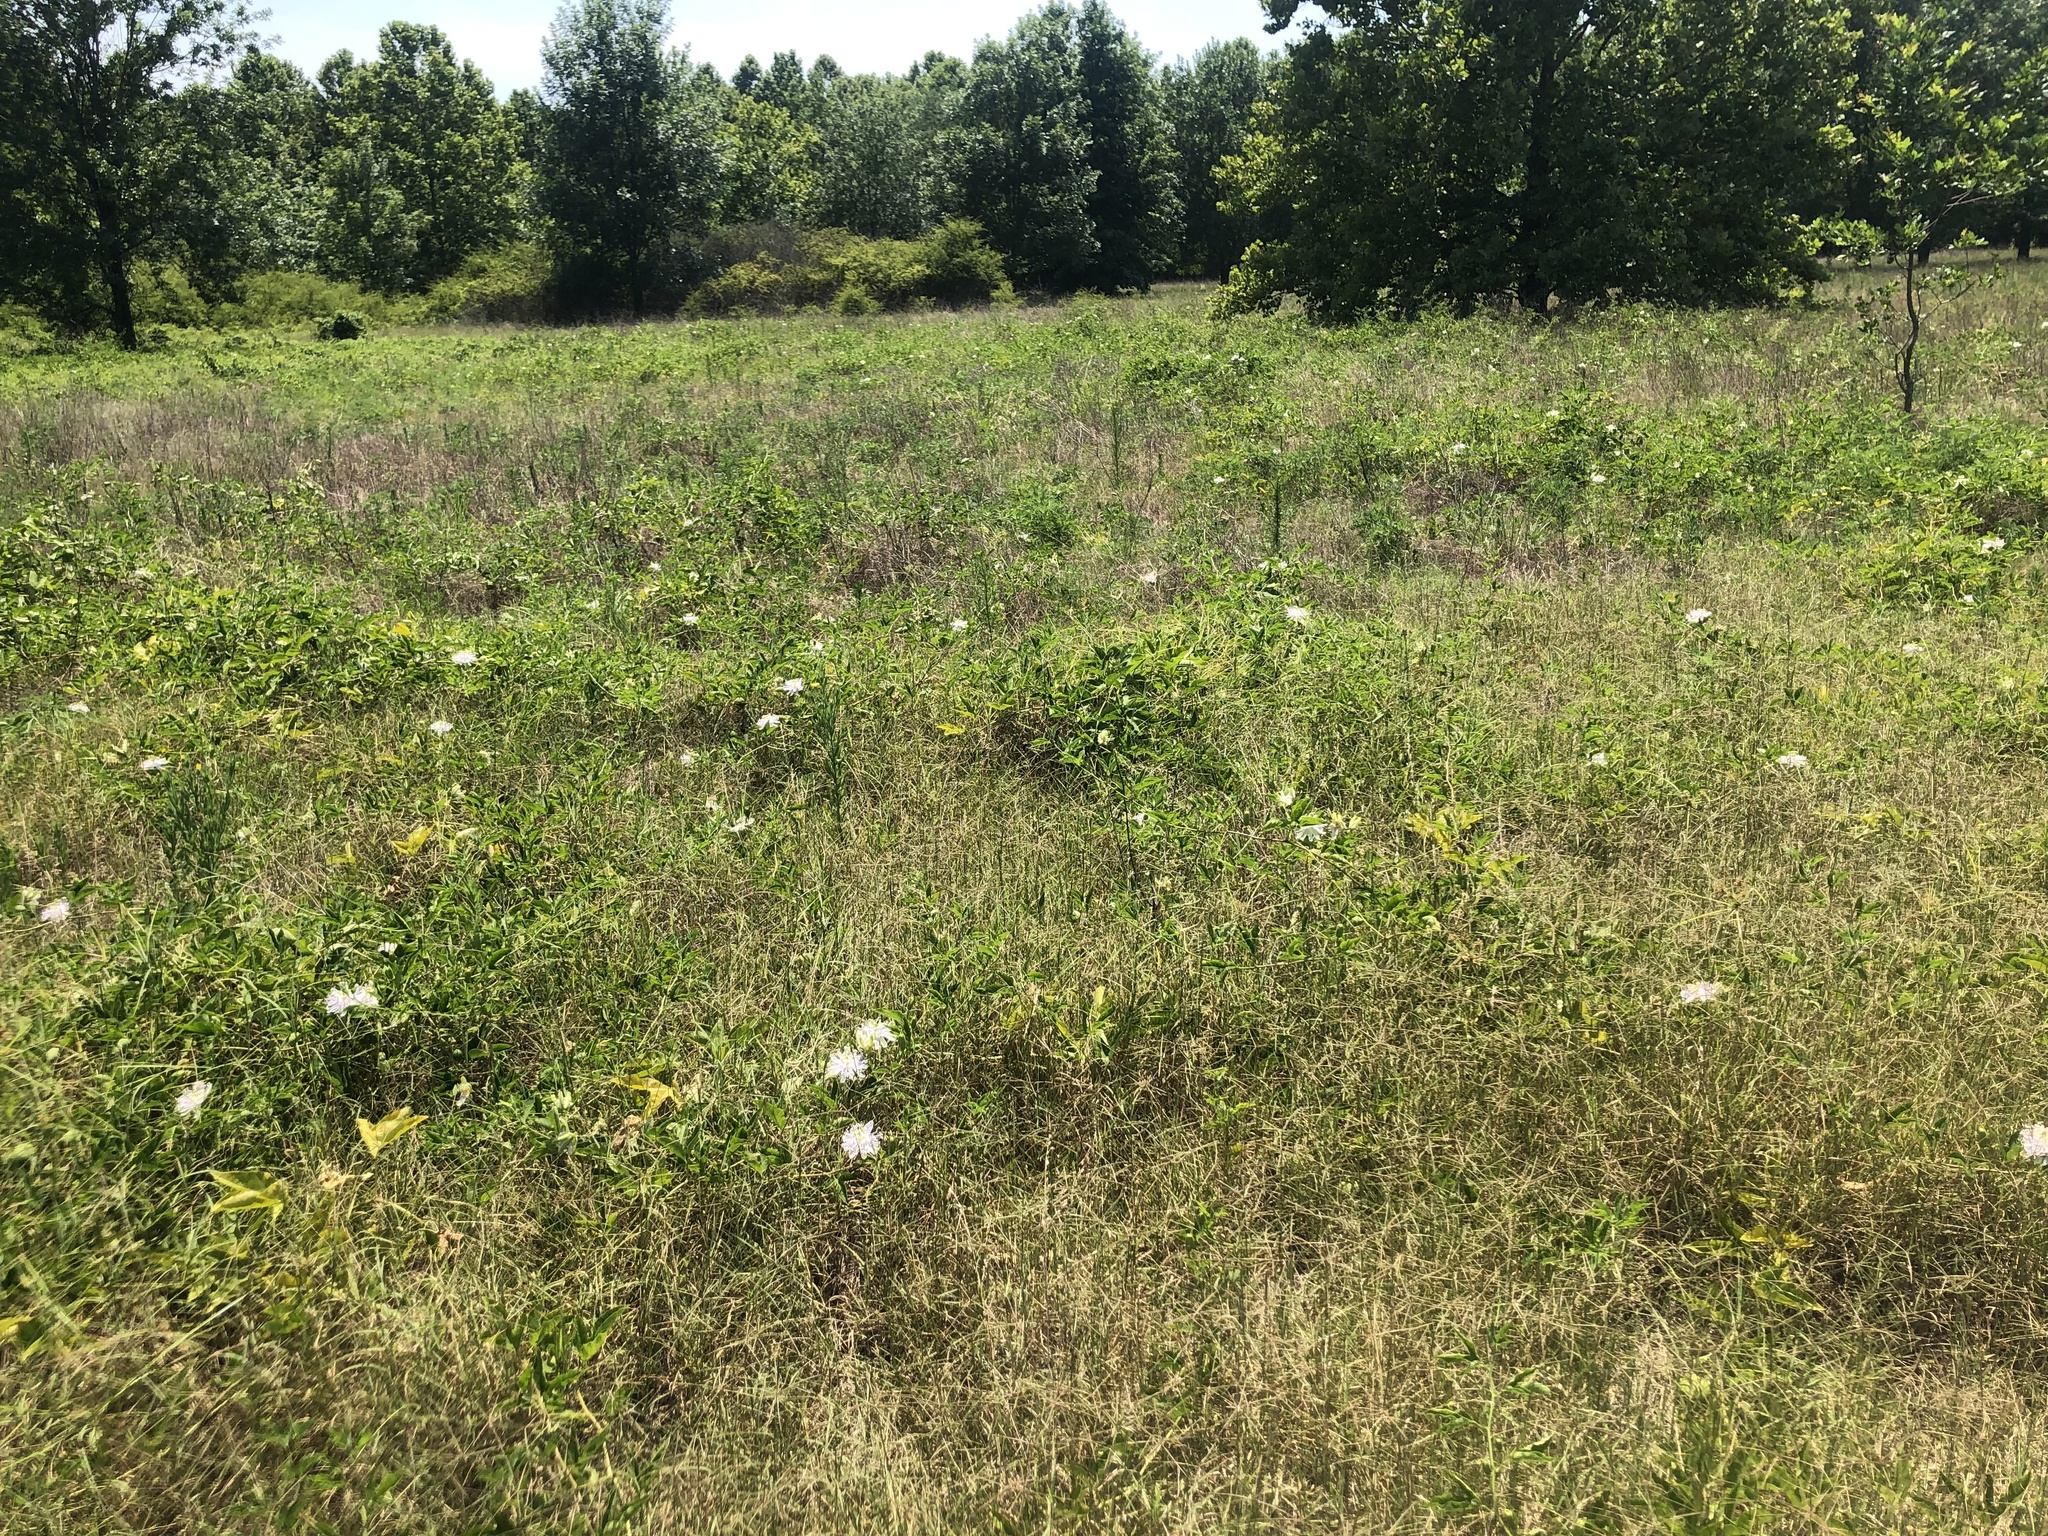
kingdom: Plantae
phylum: Tracheophyta
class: Magnoliopsida
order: Malpighiales
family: Passifloraceae
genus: Passiflora
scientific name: Passiflora incarnata
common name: Apricot-vine
